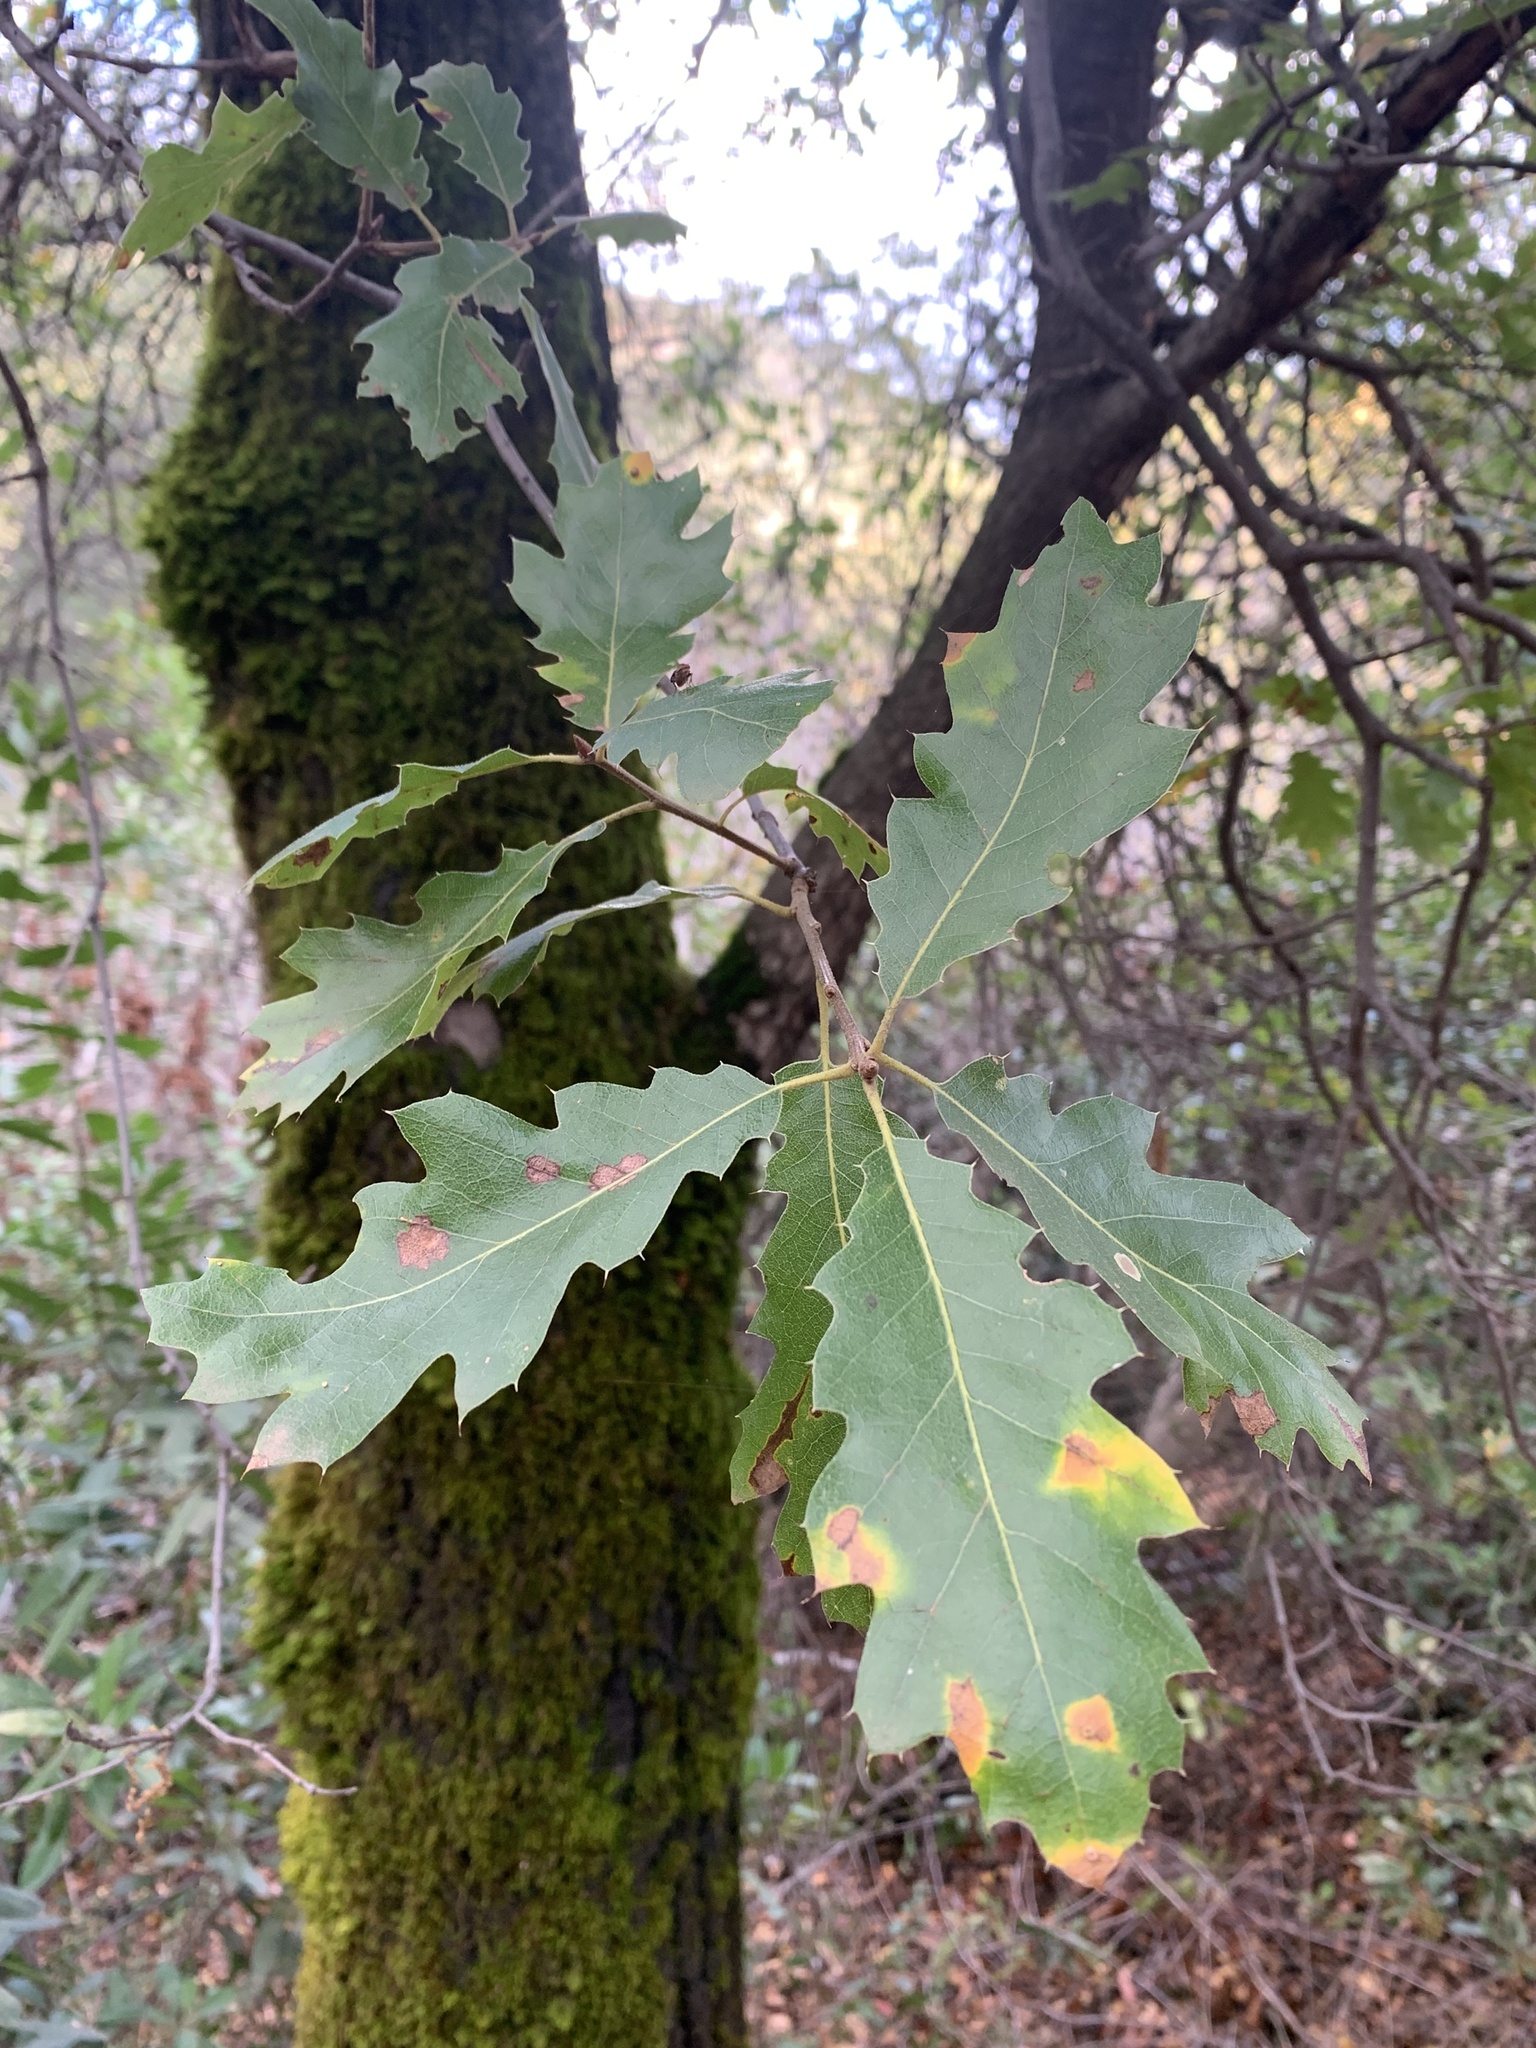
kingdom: Plantae
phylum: Tracheophyta
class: Magnoliopsida
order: Fagales
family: Fagaceae
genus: Quercus
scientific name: Quercus morehus
